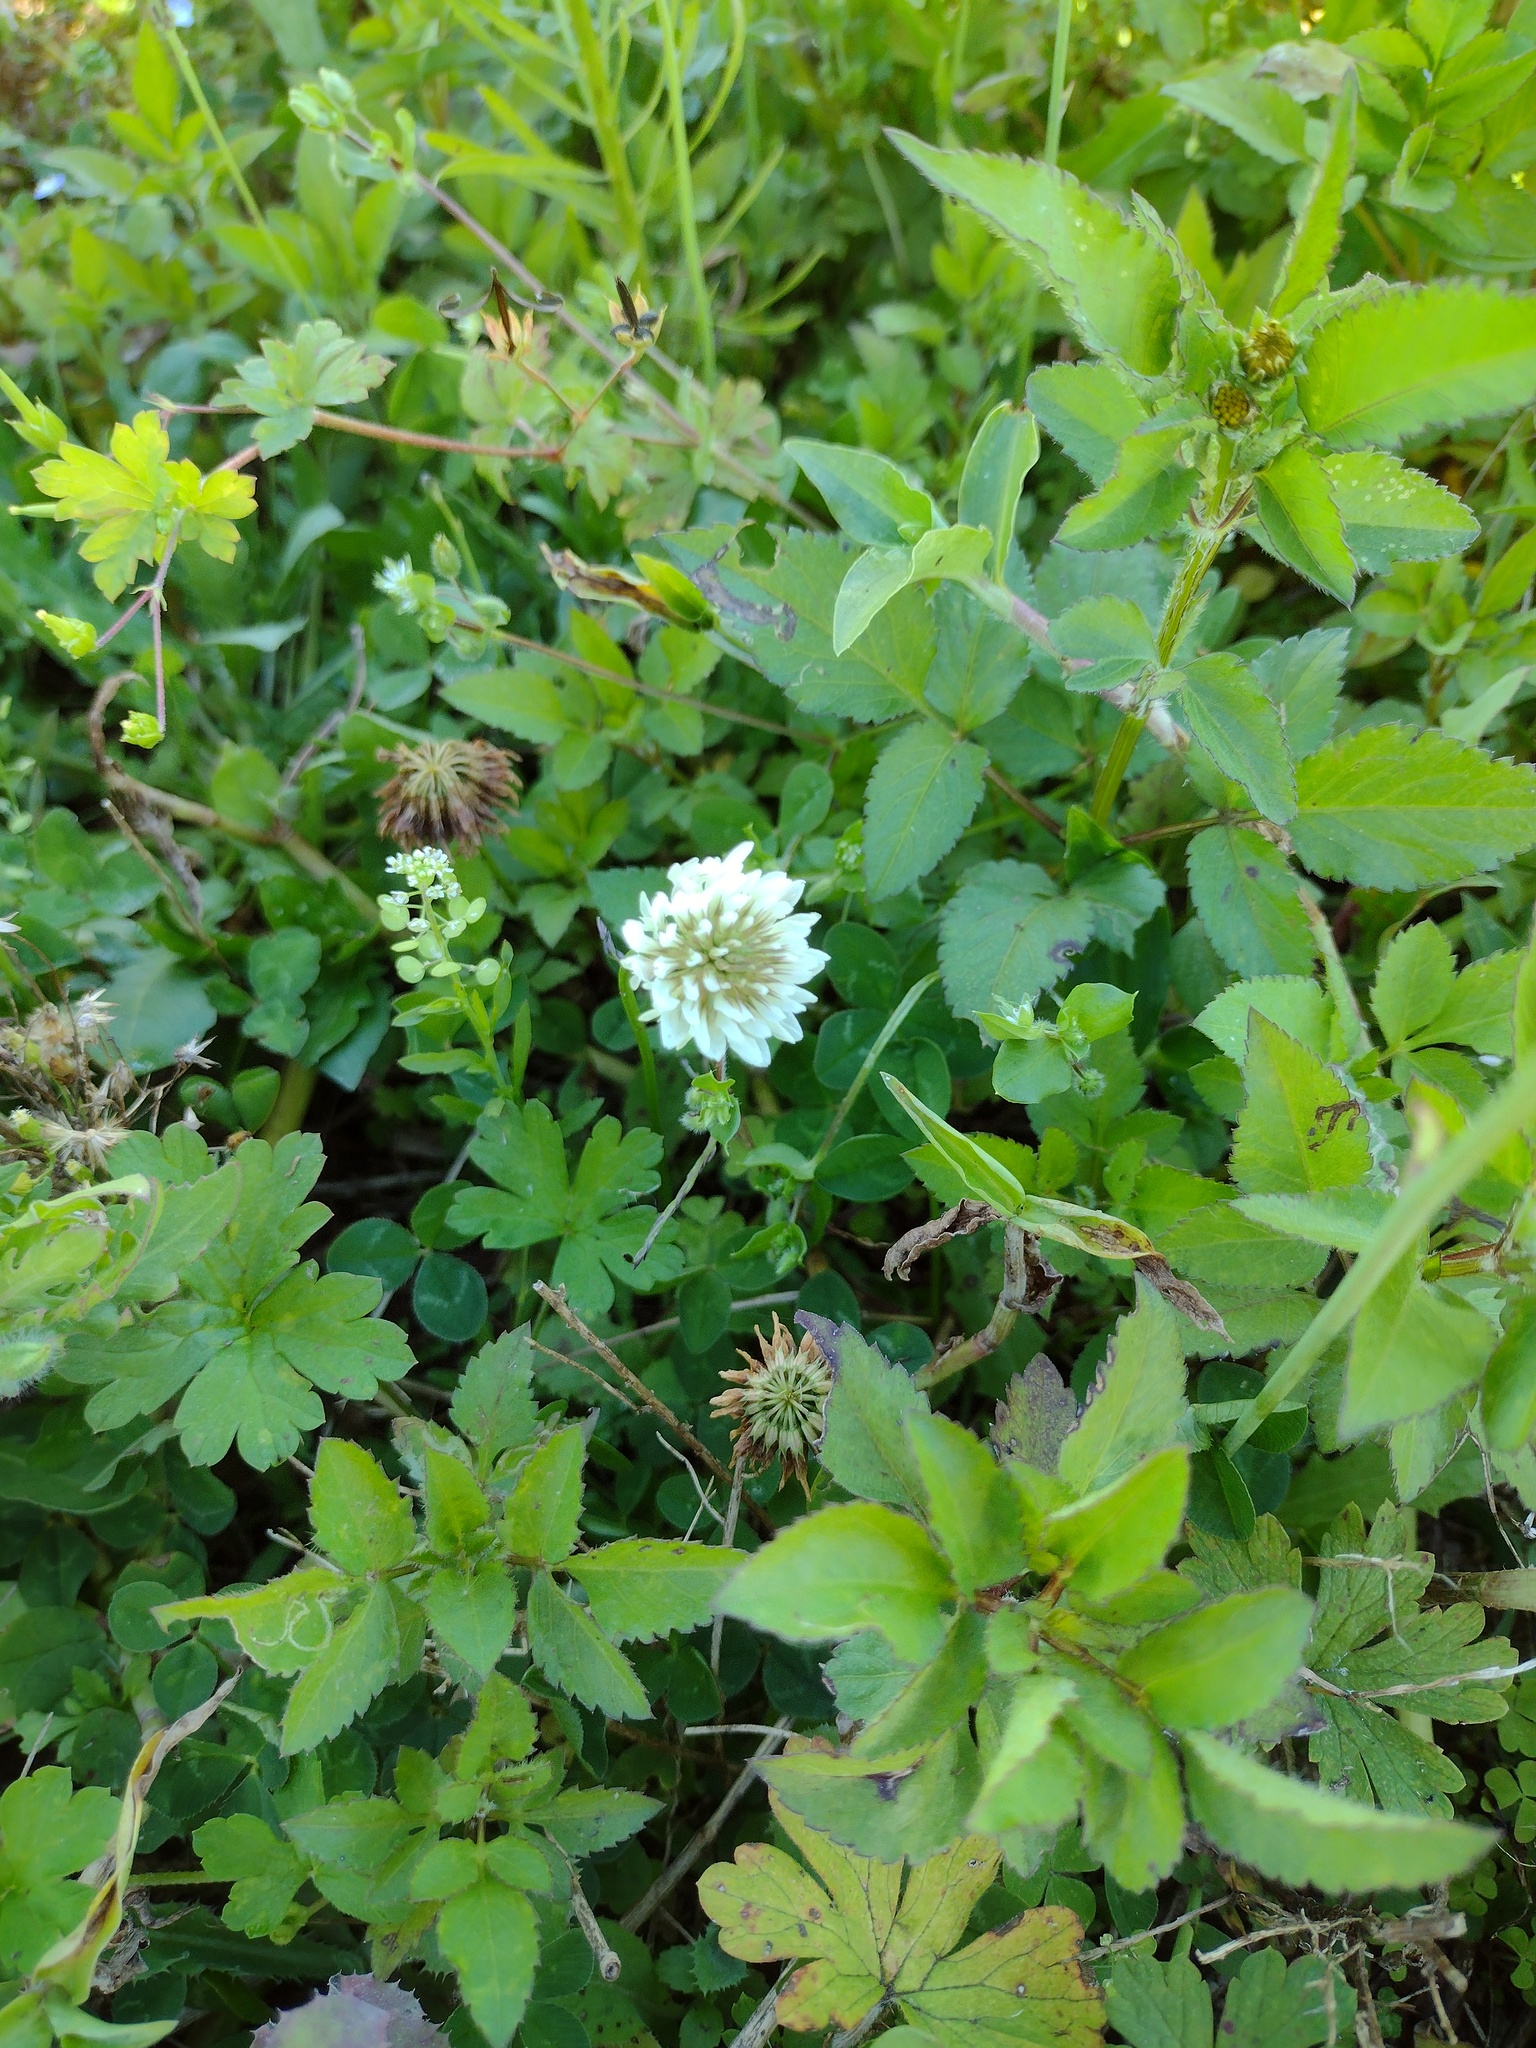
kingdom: Plantae
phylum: Tracheophyta
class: Magnoliopsida
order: Fabales
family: Fabaceae
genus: Trifolium
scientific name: Trifolium repens
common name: White clover
